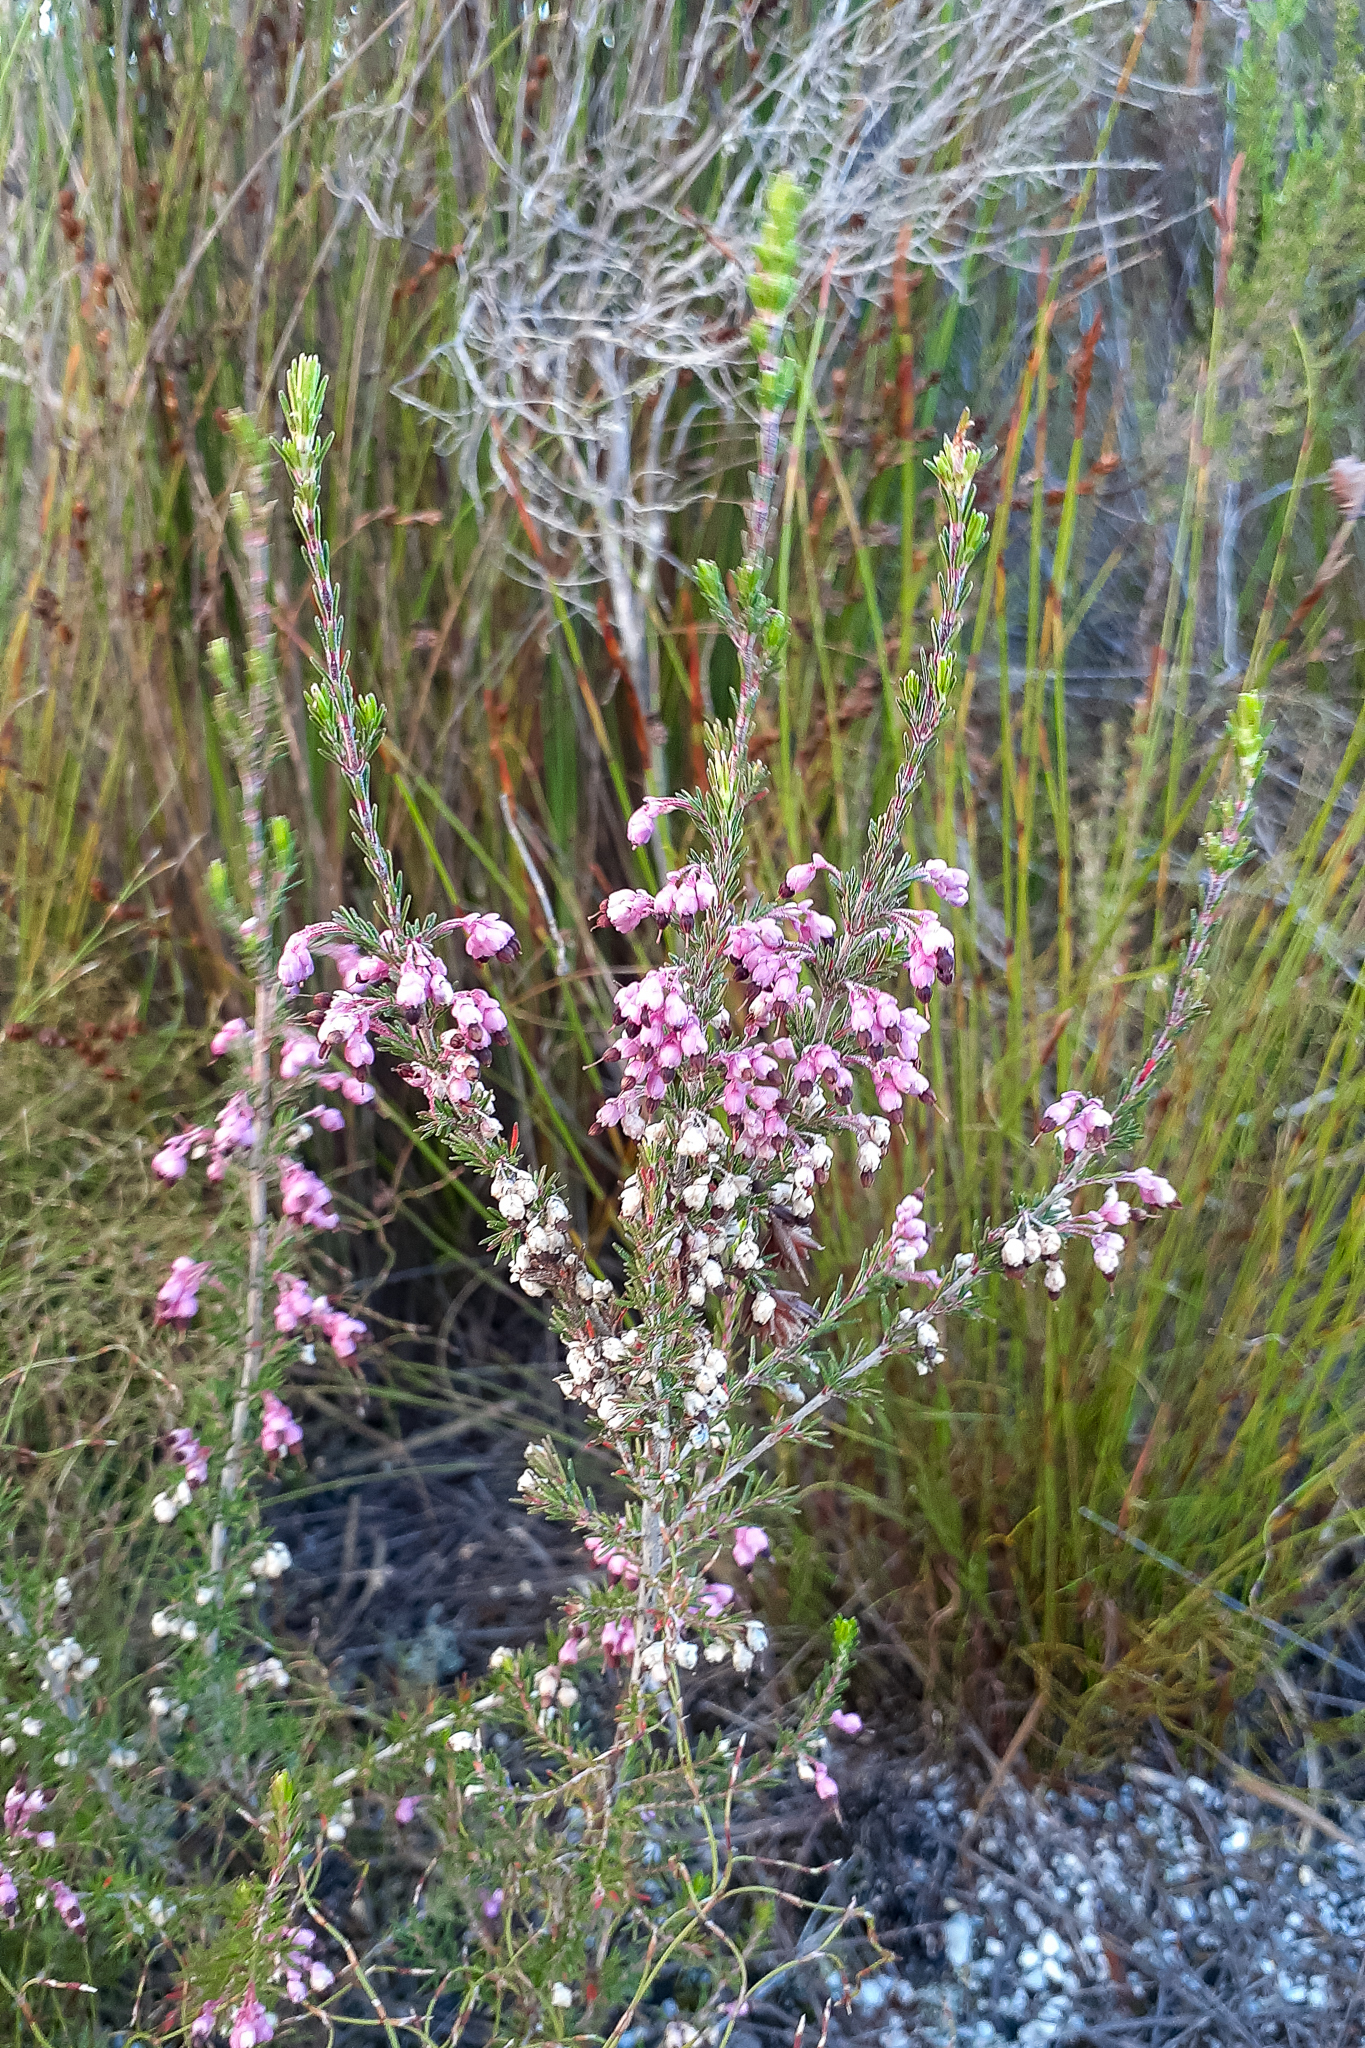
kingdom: Plantae
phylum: Tracheophyta
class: Magnoliopsida
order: Ericales
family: Ericaceae
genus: Erica
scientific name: Erica placentiflora
